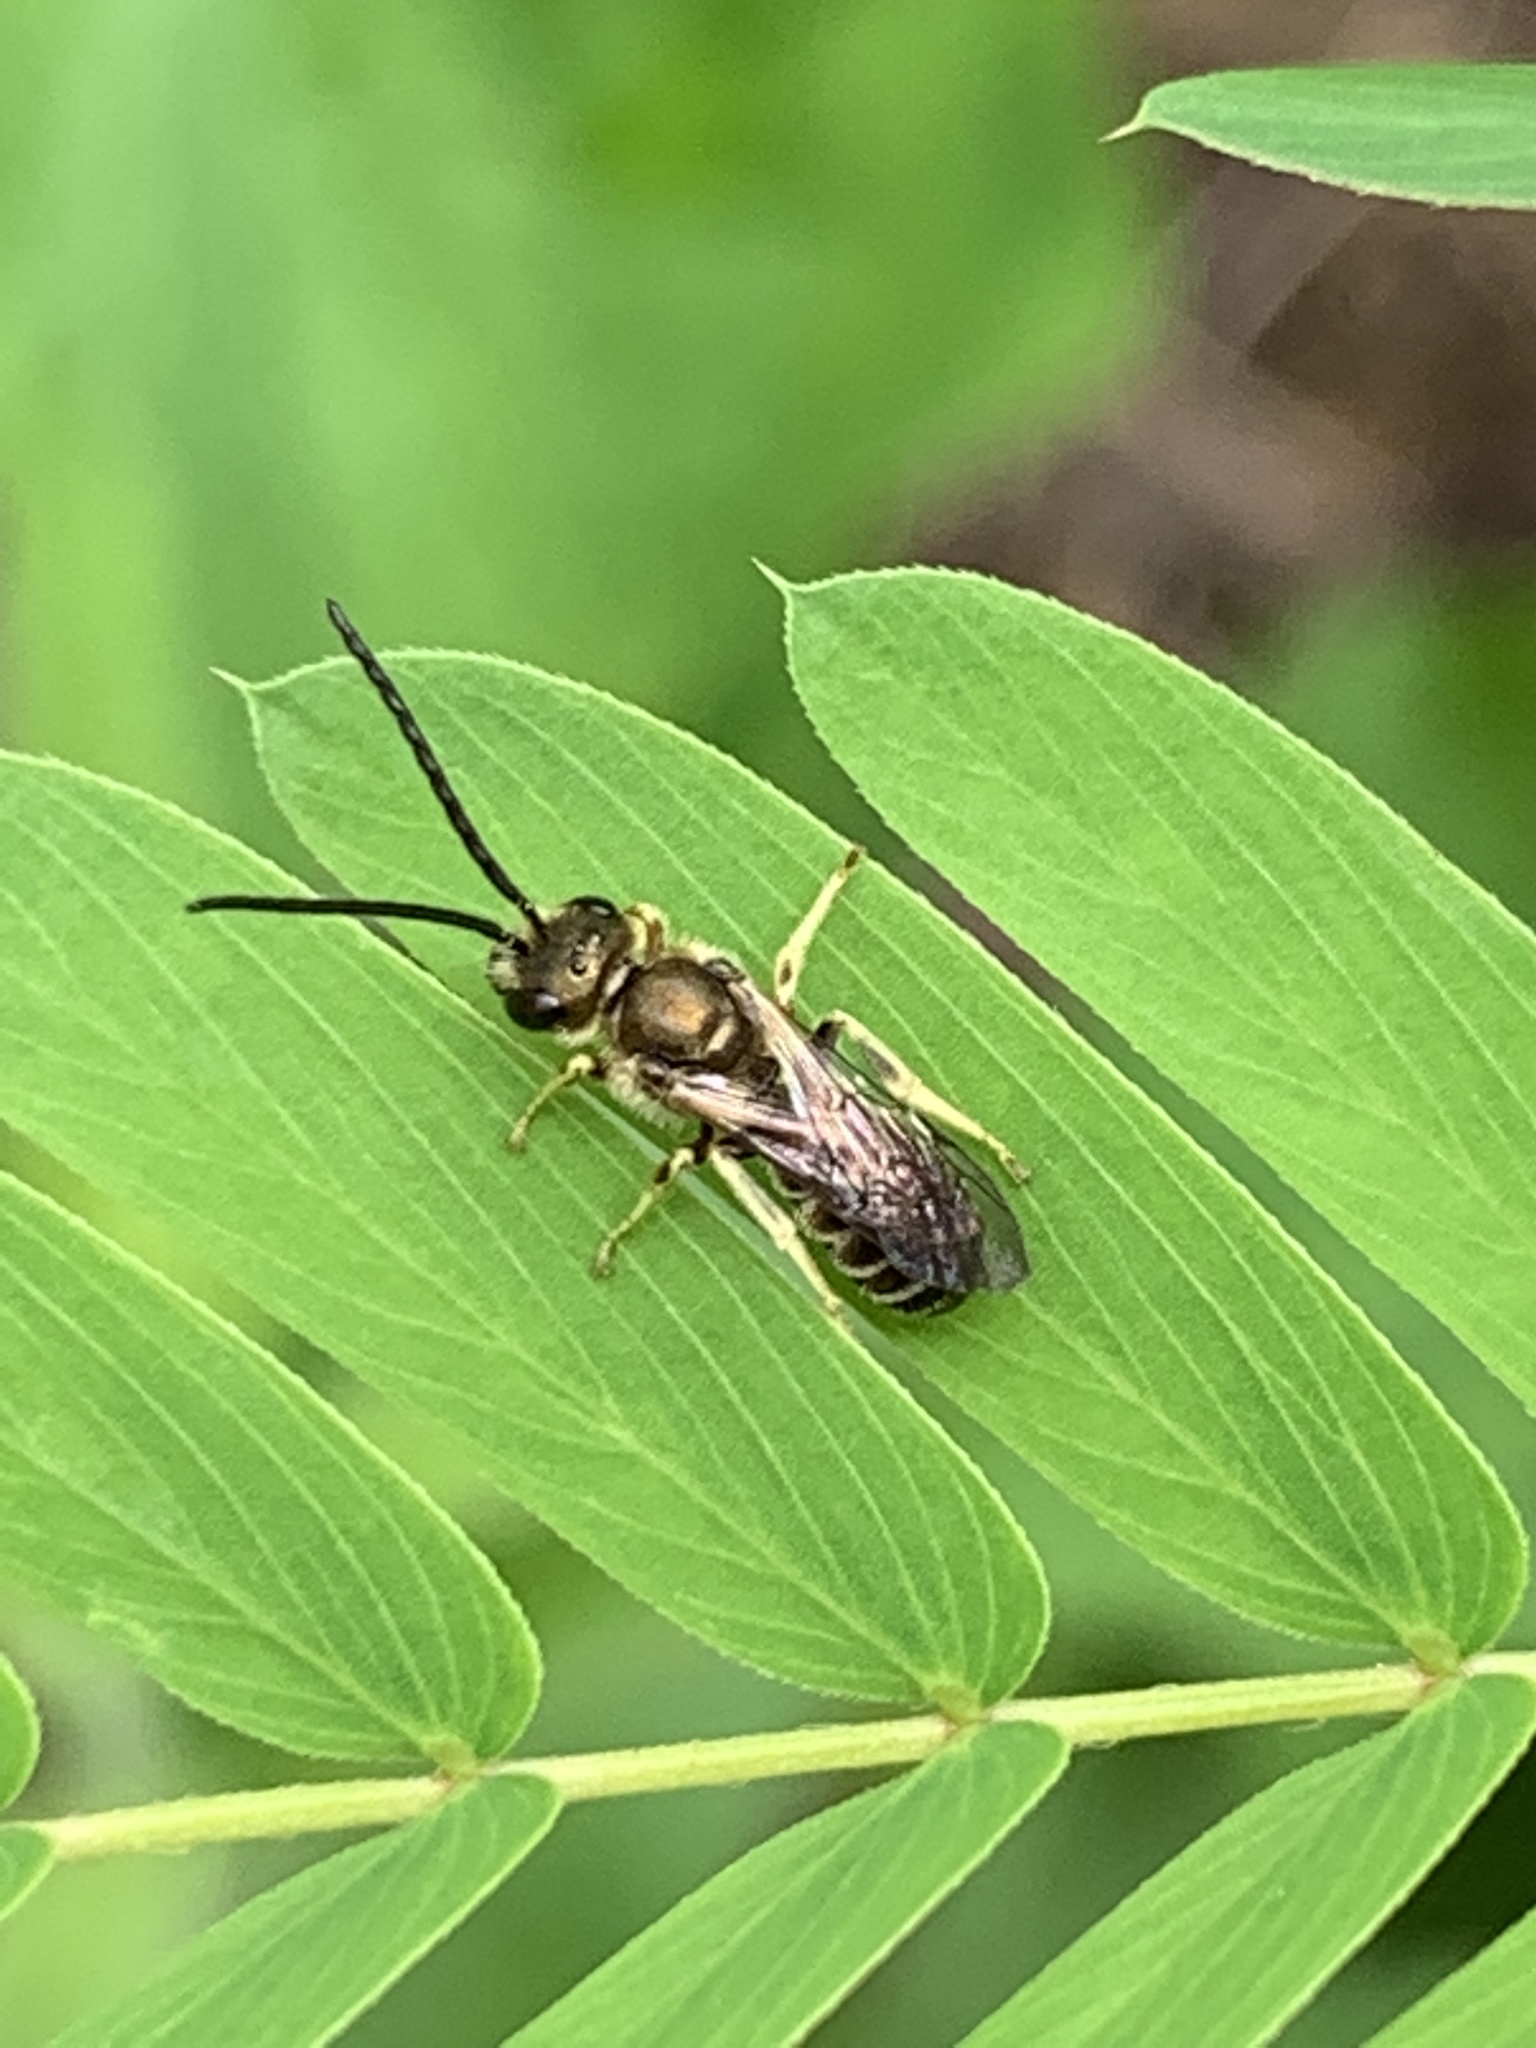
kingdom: Animalia
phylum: Arthropoda
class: Insecta
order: Hymenoptera
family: Halictidae
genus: Halictus
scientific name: Halictus confusus
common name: Southern bronze furrow bee
